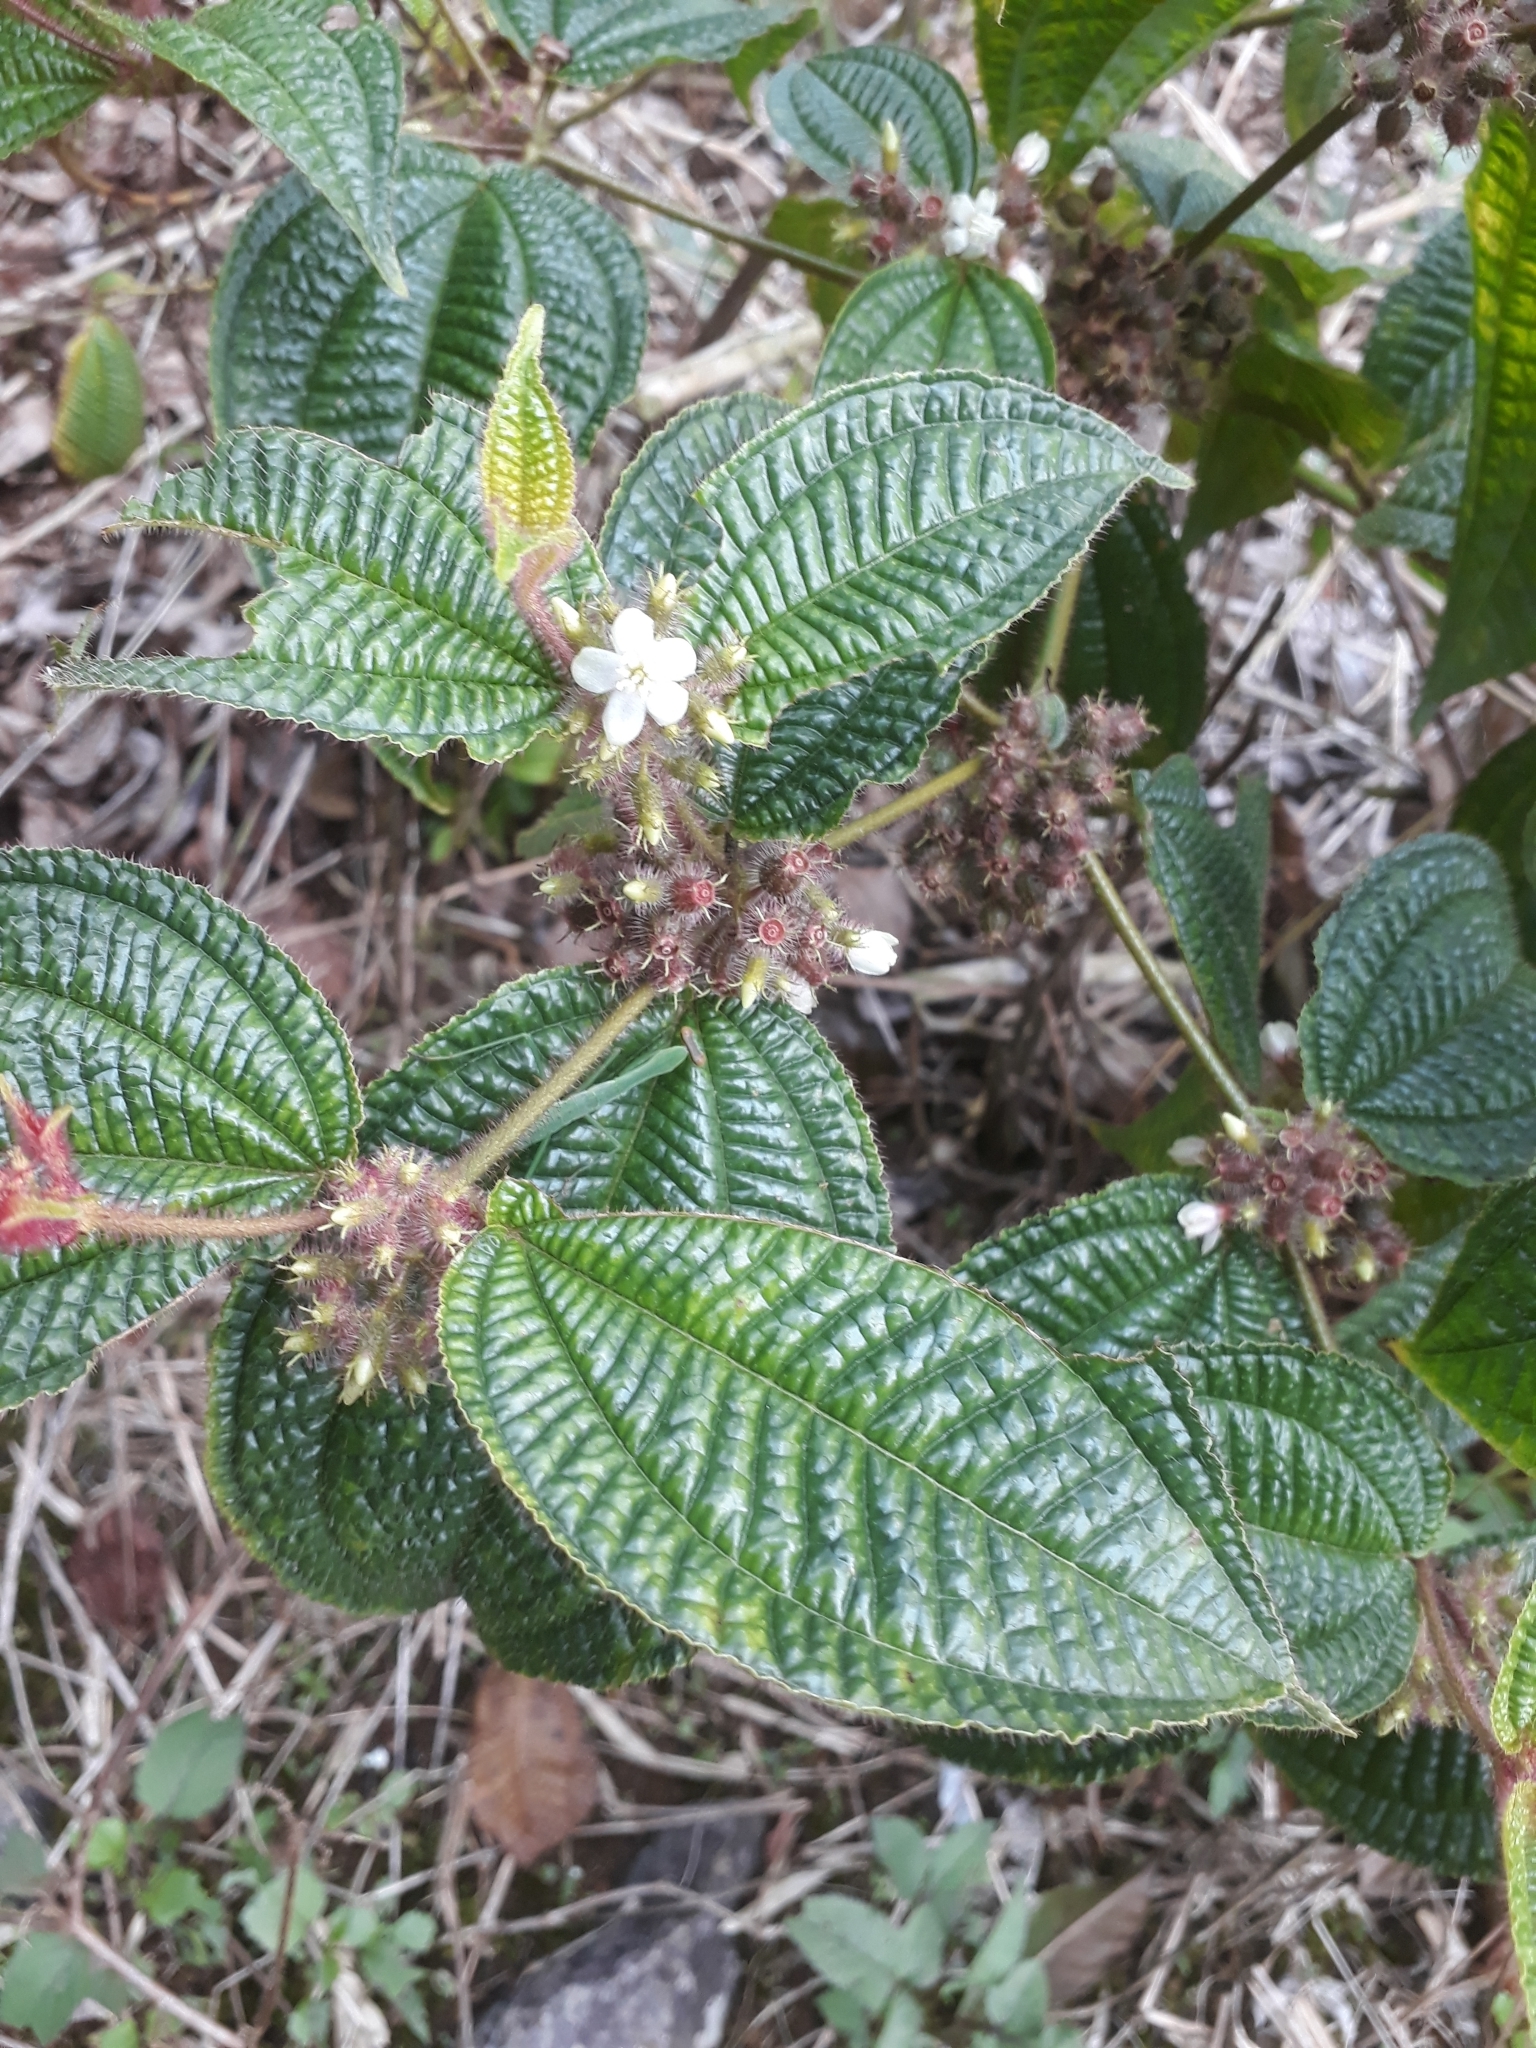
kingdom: Plantae
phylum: Tracheophyta
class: Magnoliopsida
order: Myrtales
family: Melastomataceae
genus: Miconia
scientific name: Miconia crenata
